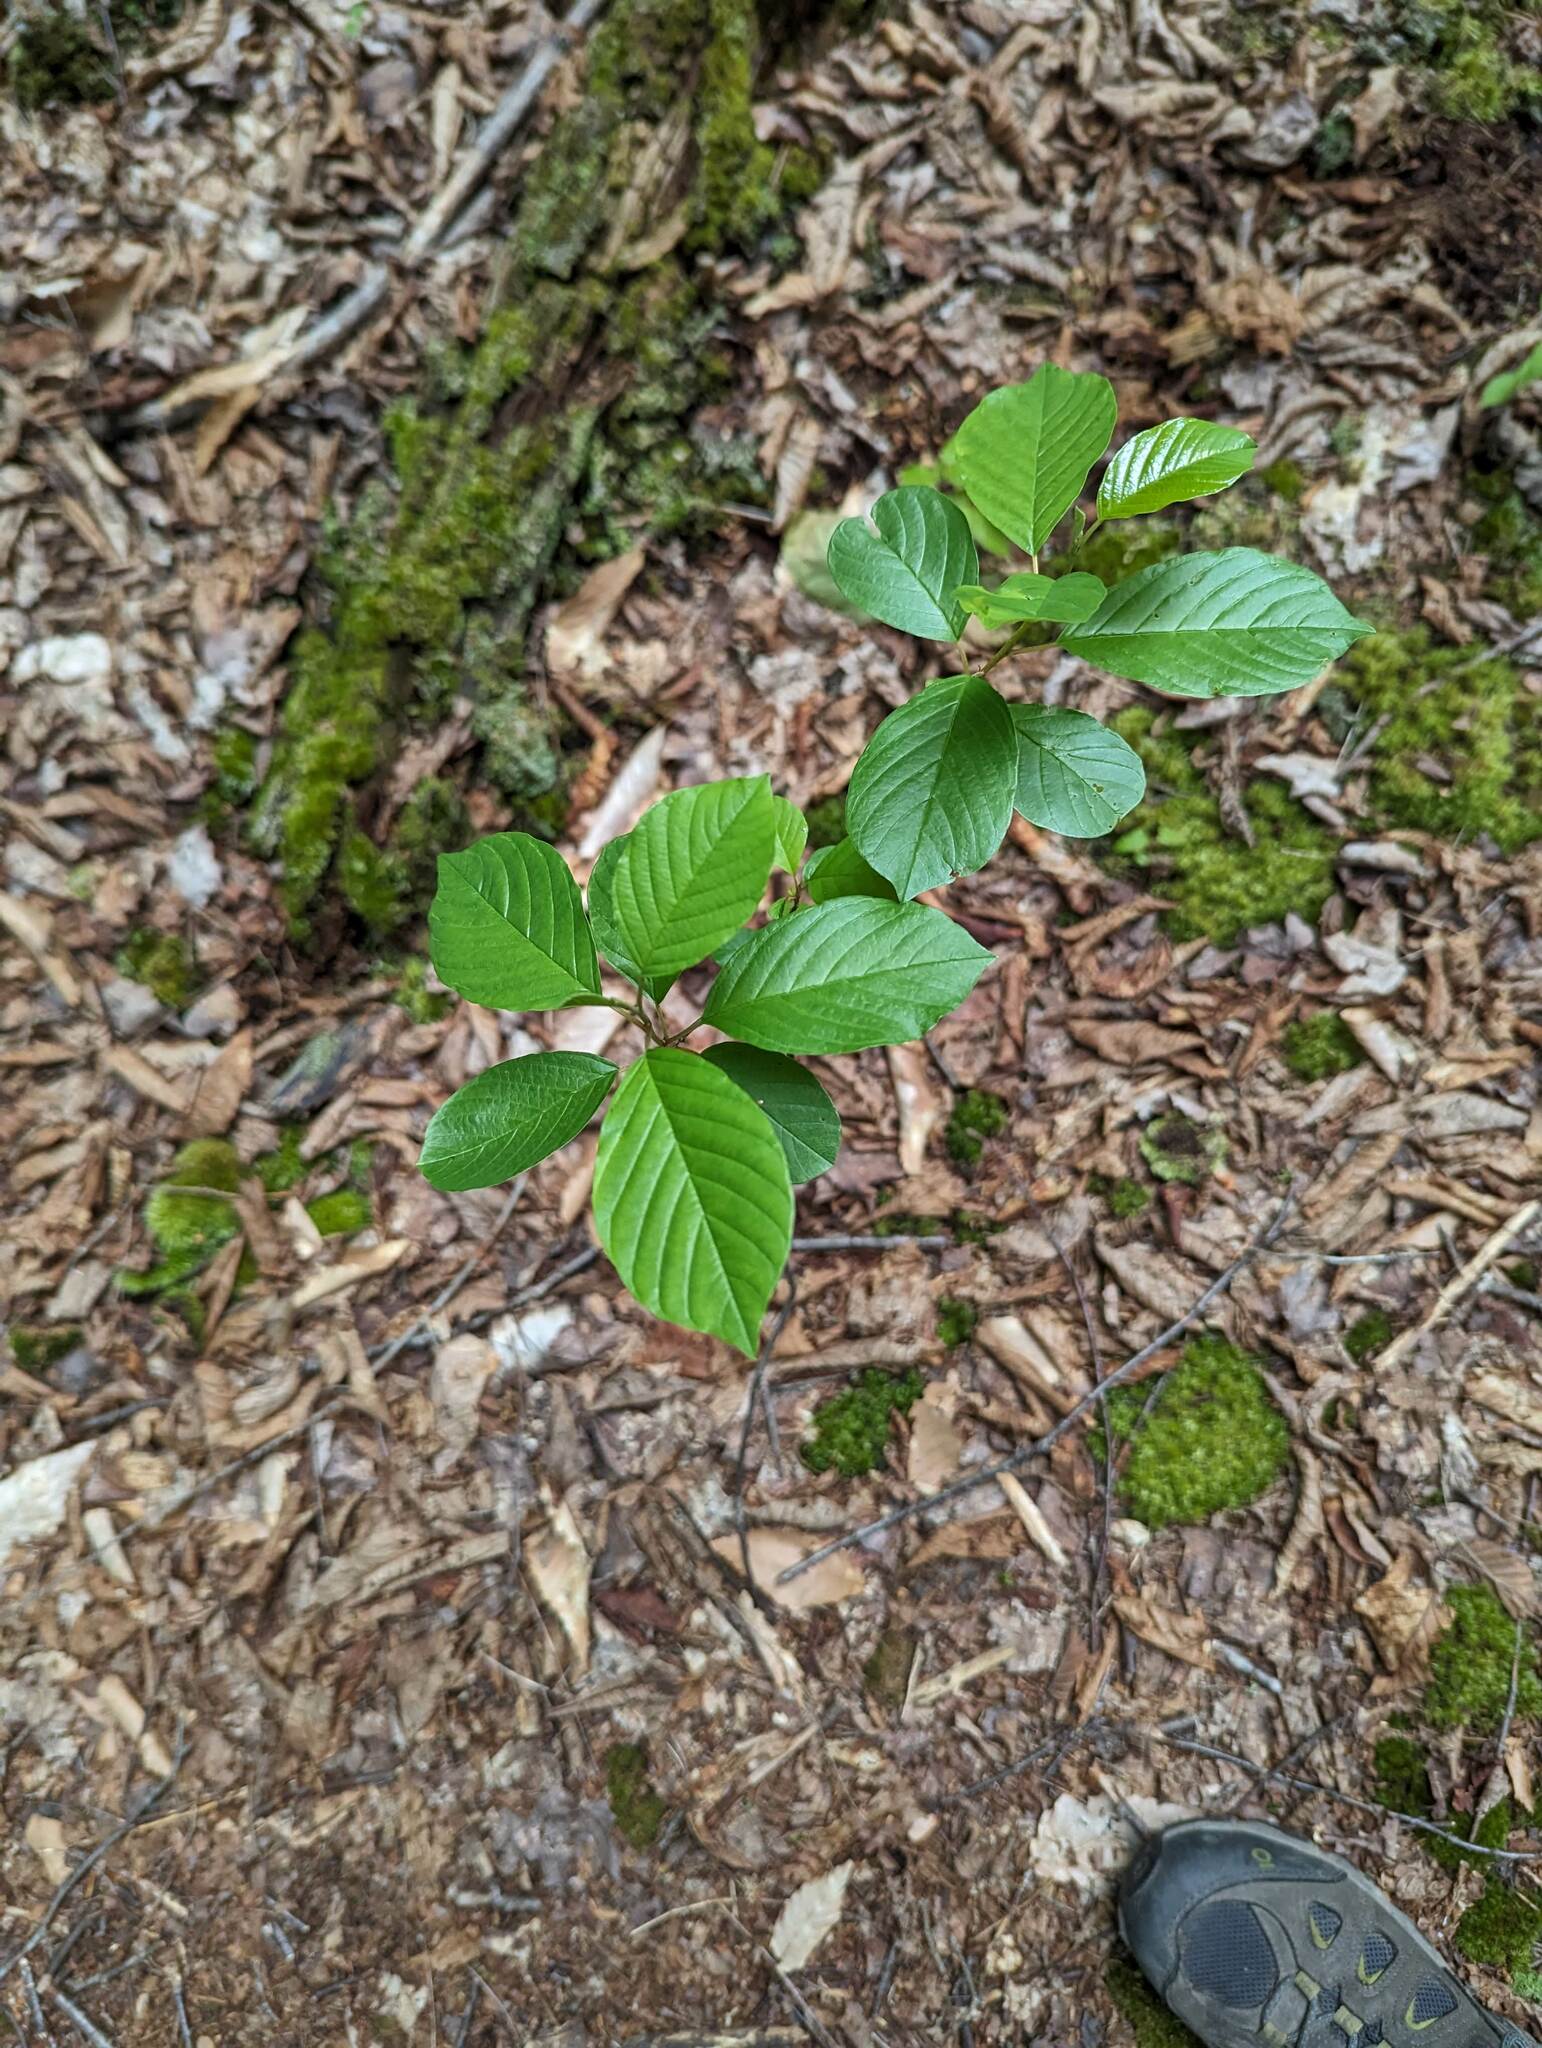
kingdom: Plantae
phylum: Tracheophyta
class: Magnoliopsida
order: Rosales
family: Rhamnaceae
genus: Frangula
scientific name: Frangula alnus
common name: Alder buckthorn
